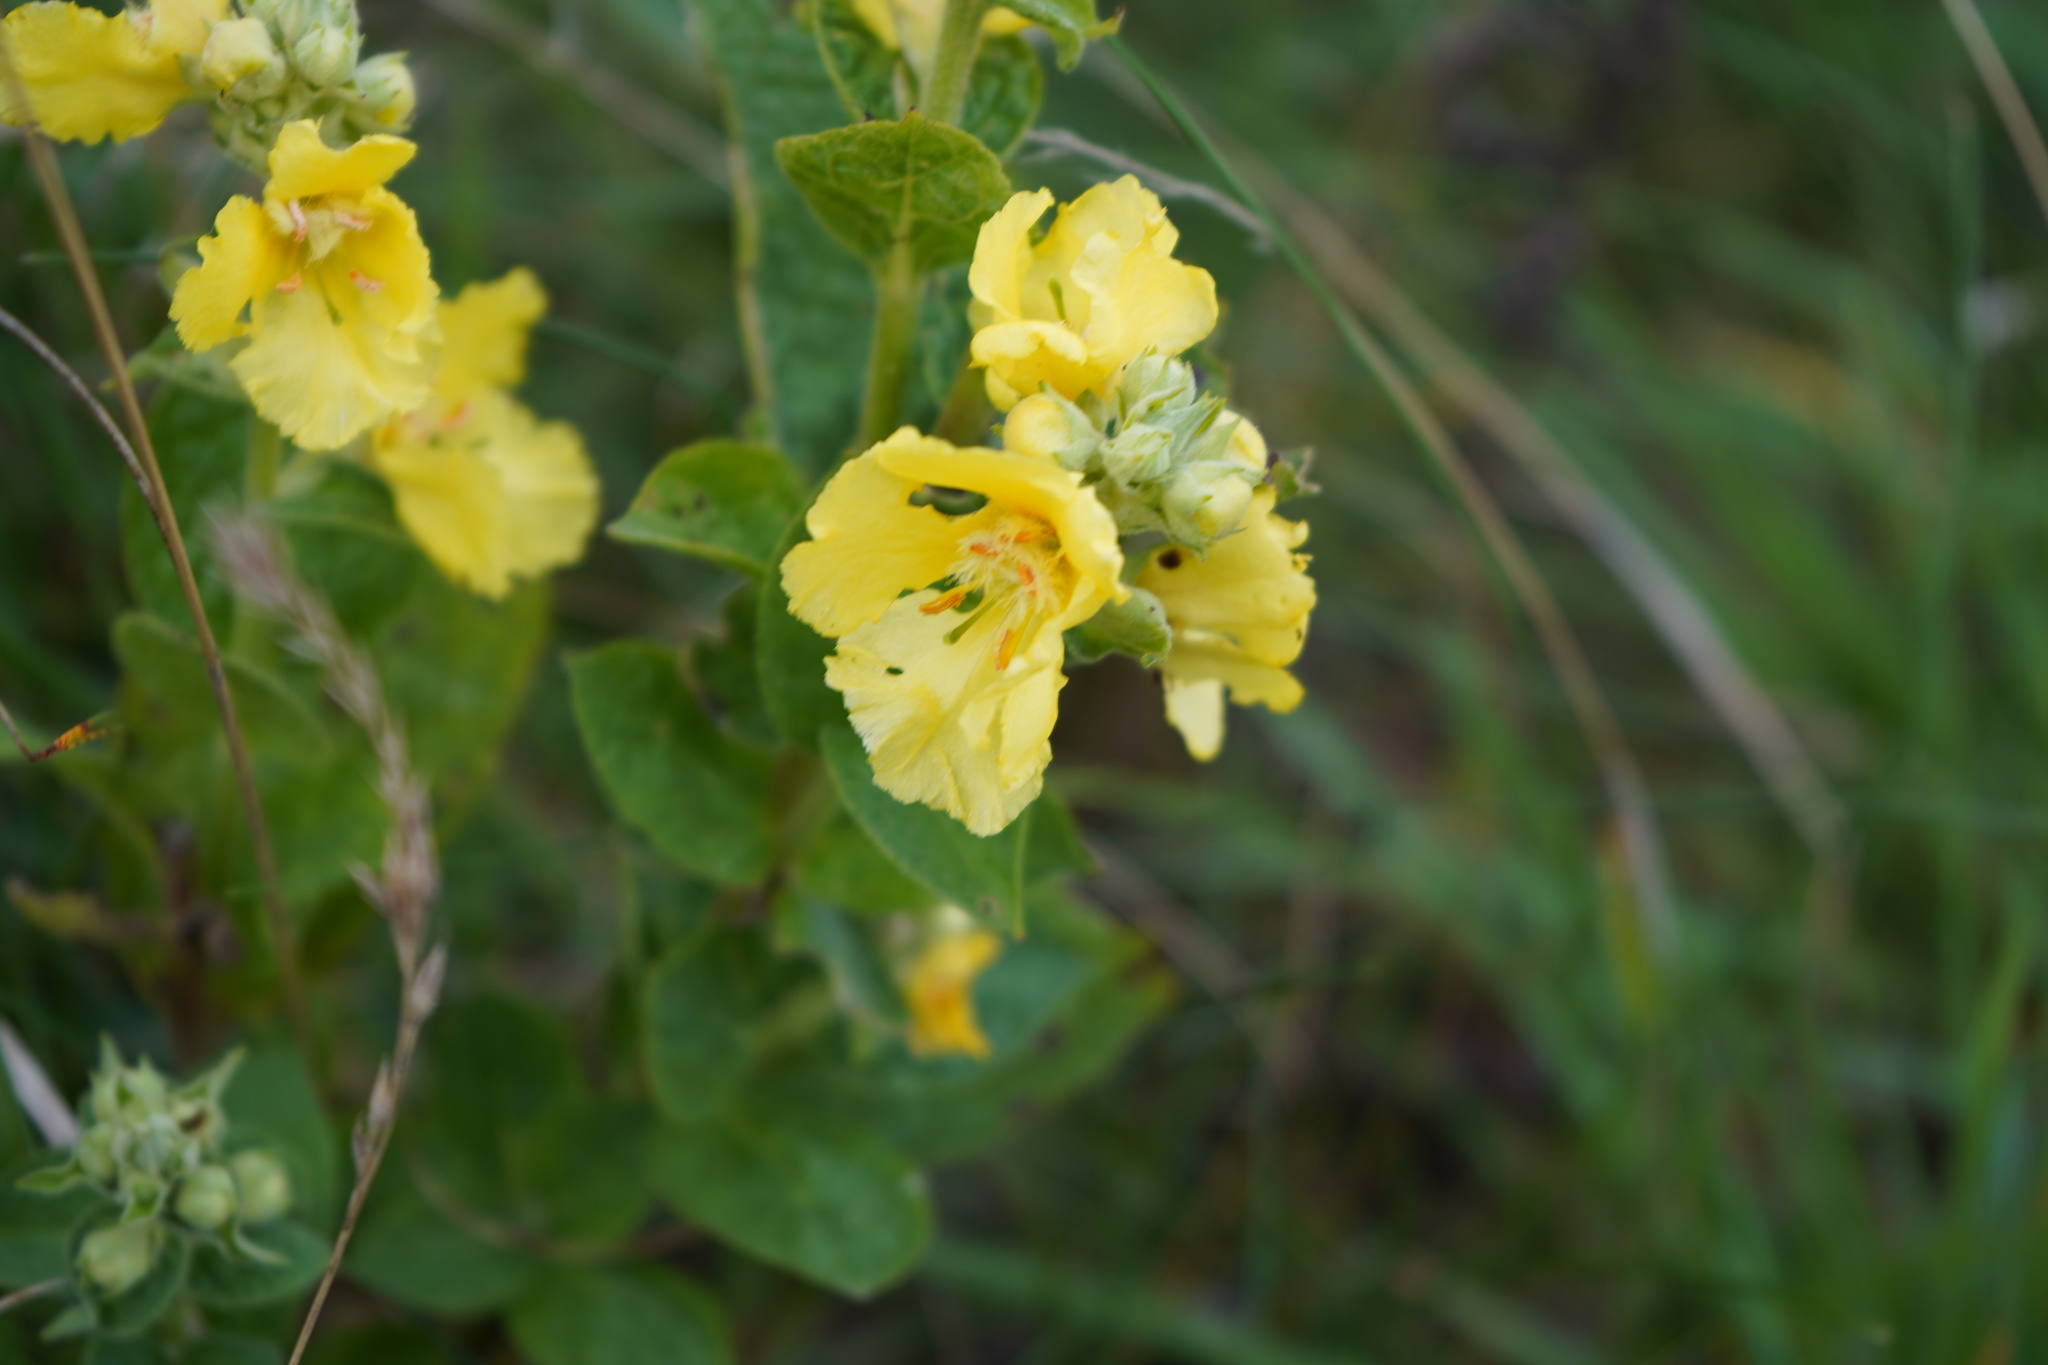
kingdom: Plantae
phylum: Tracheophyta
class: Magnoliopsida
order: Lamiales
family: Scrophulariaceae
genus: Verbascum
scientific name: Verbascum phlomoides
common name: Orange mullein
